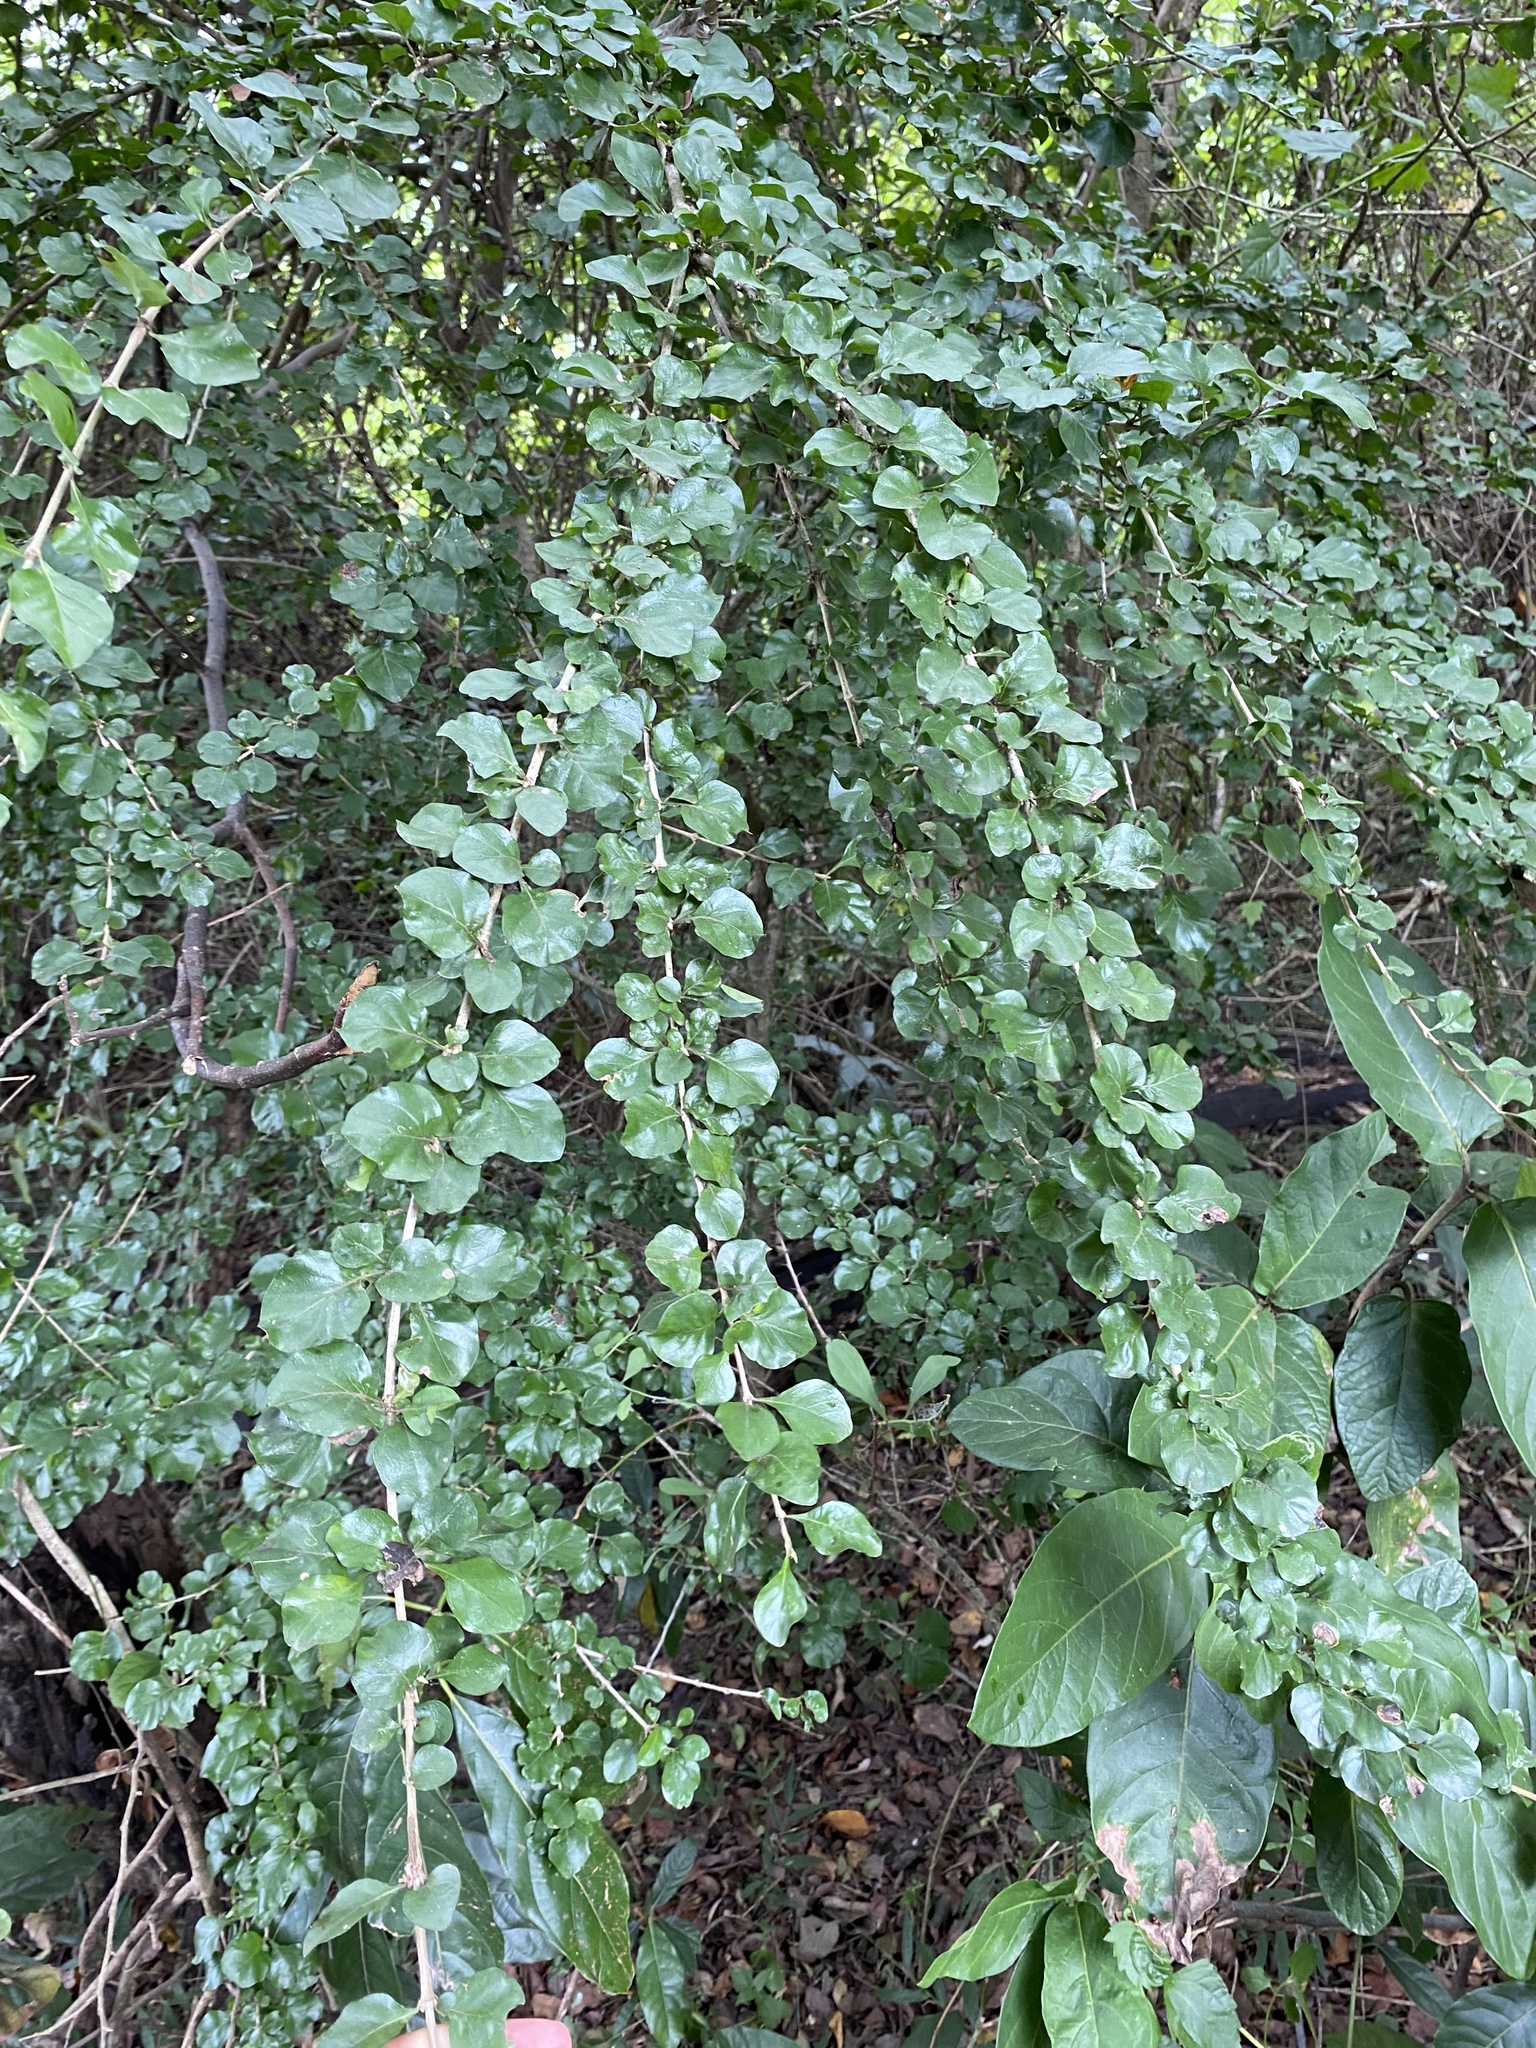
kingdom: Plantae
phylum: Tracheophyta
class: Magnoliopsida
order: Gentianales
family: Rubiaceae
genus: Coddia
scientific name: Coddia rudis
